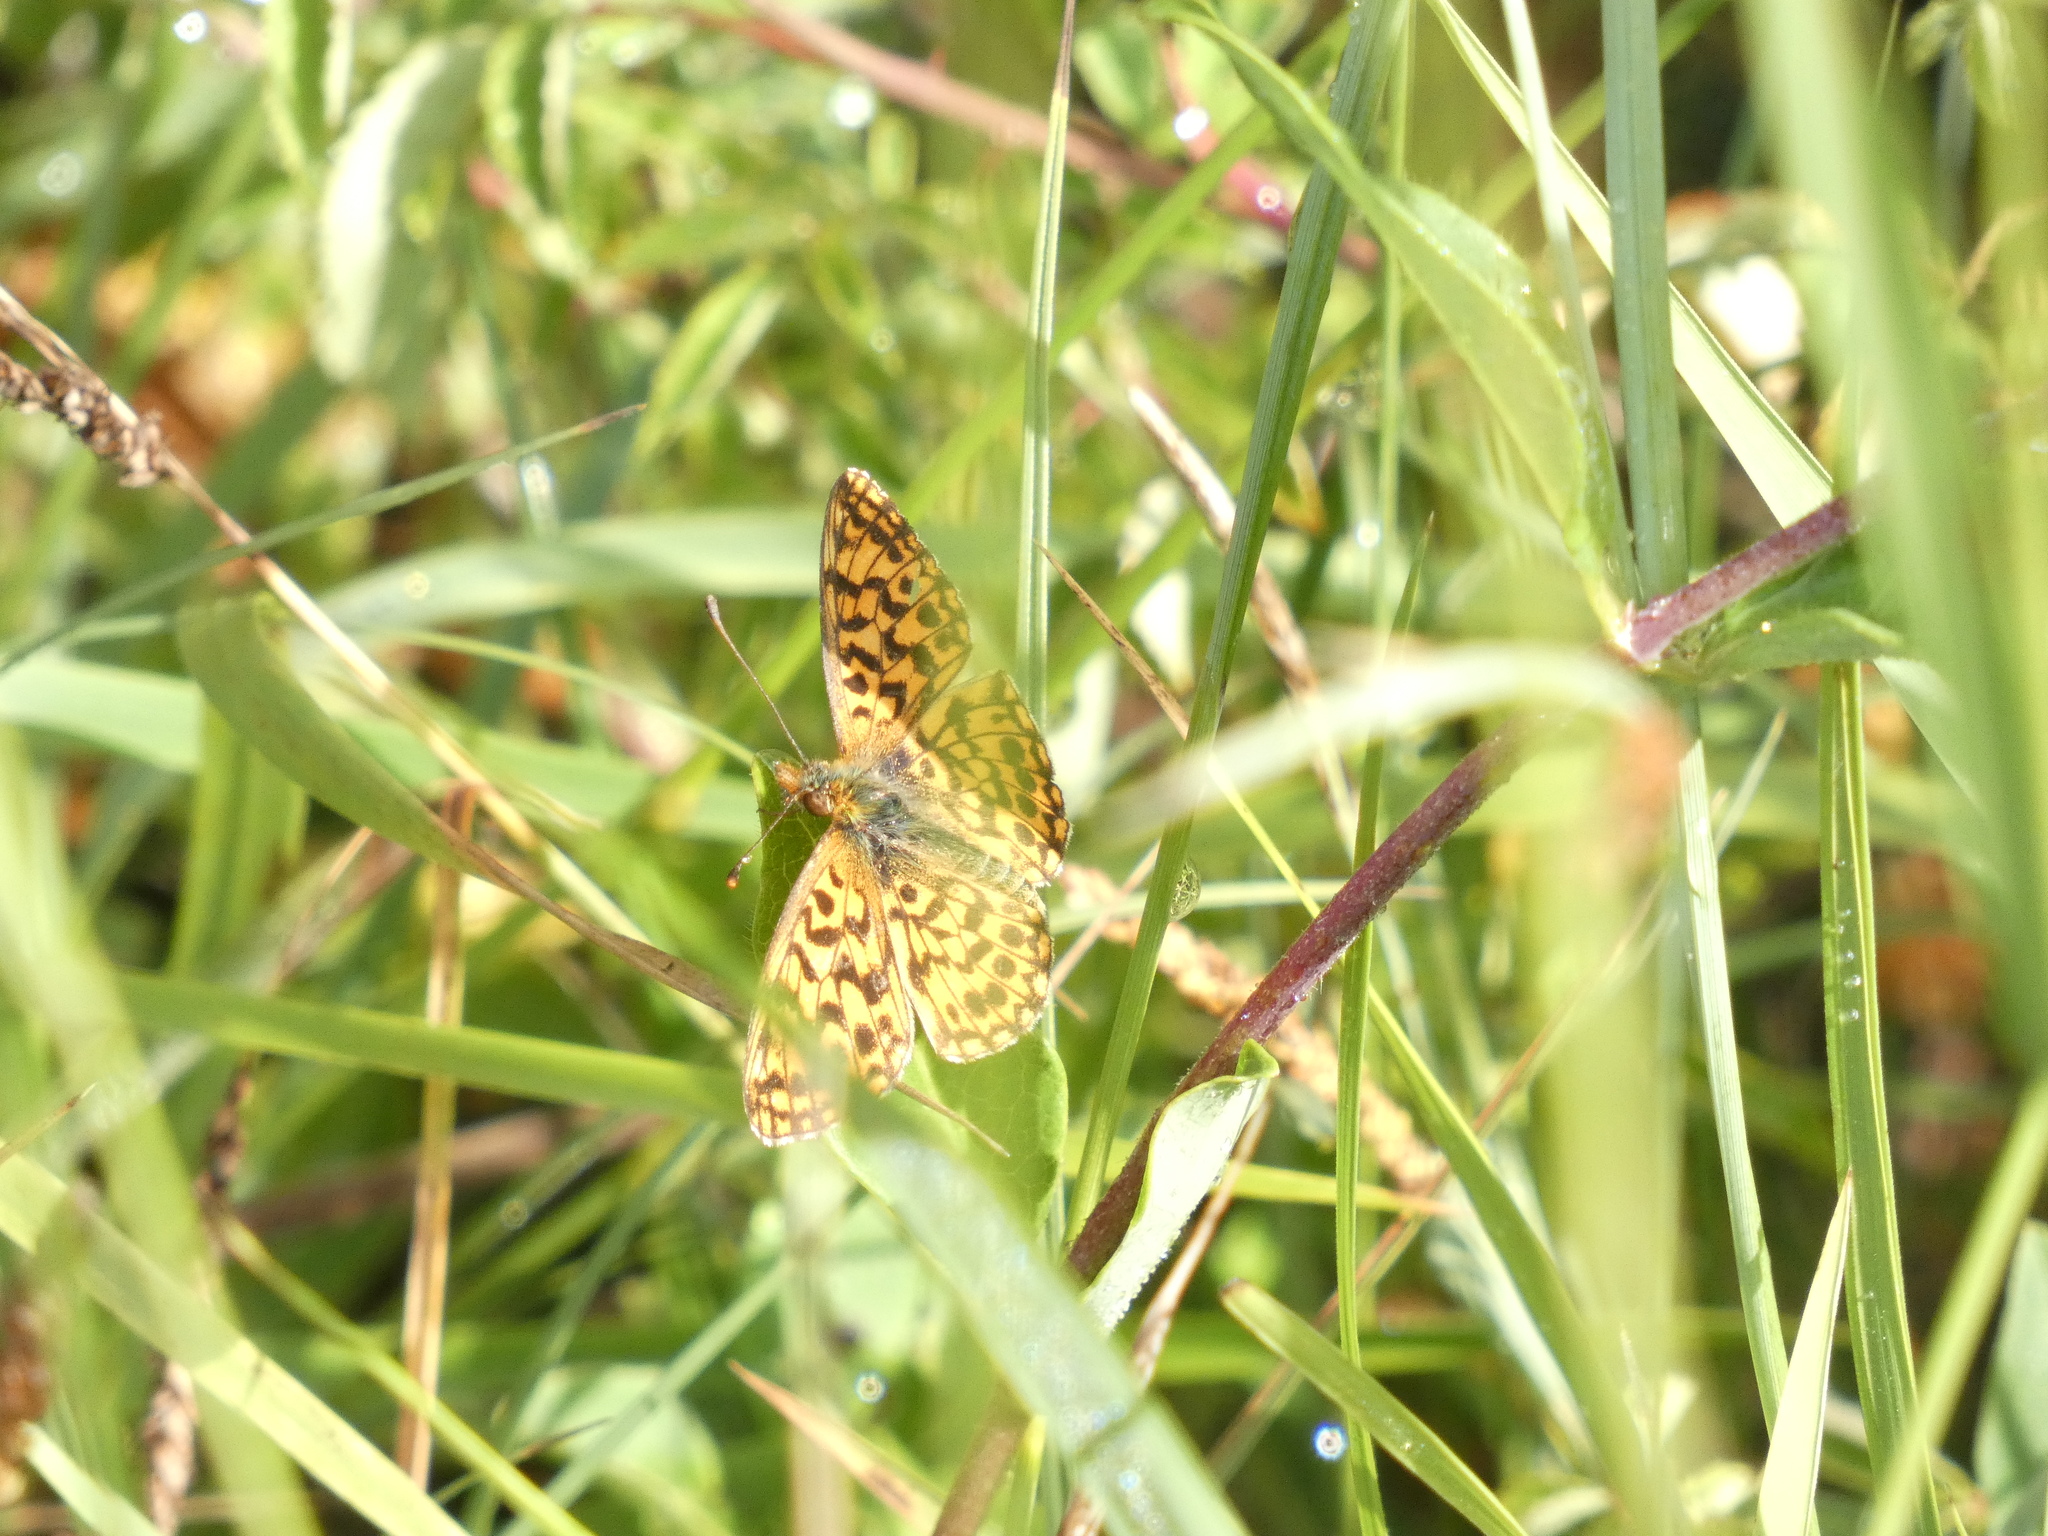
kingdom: Animalia
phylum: Arthropoda
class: Insecta
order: Lepidoptera
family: Nymphalidae
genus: Boloria
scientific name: Boloria dia
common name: Weaver's fritillary
